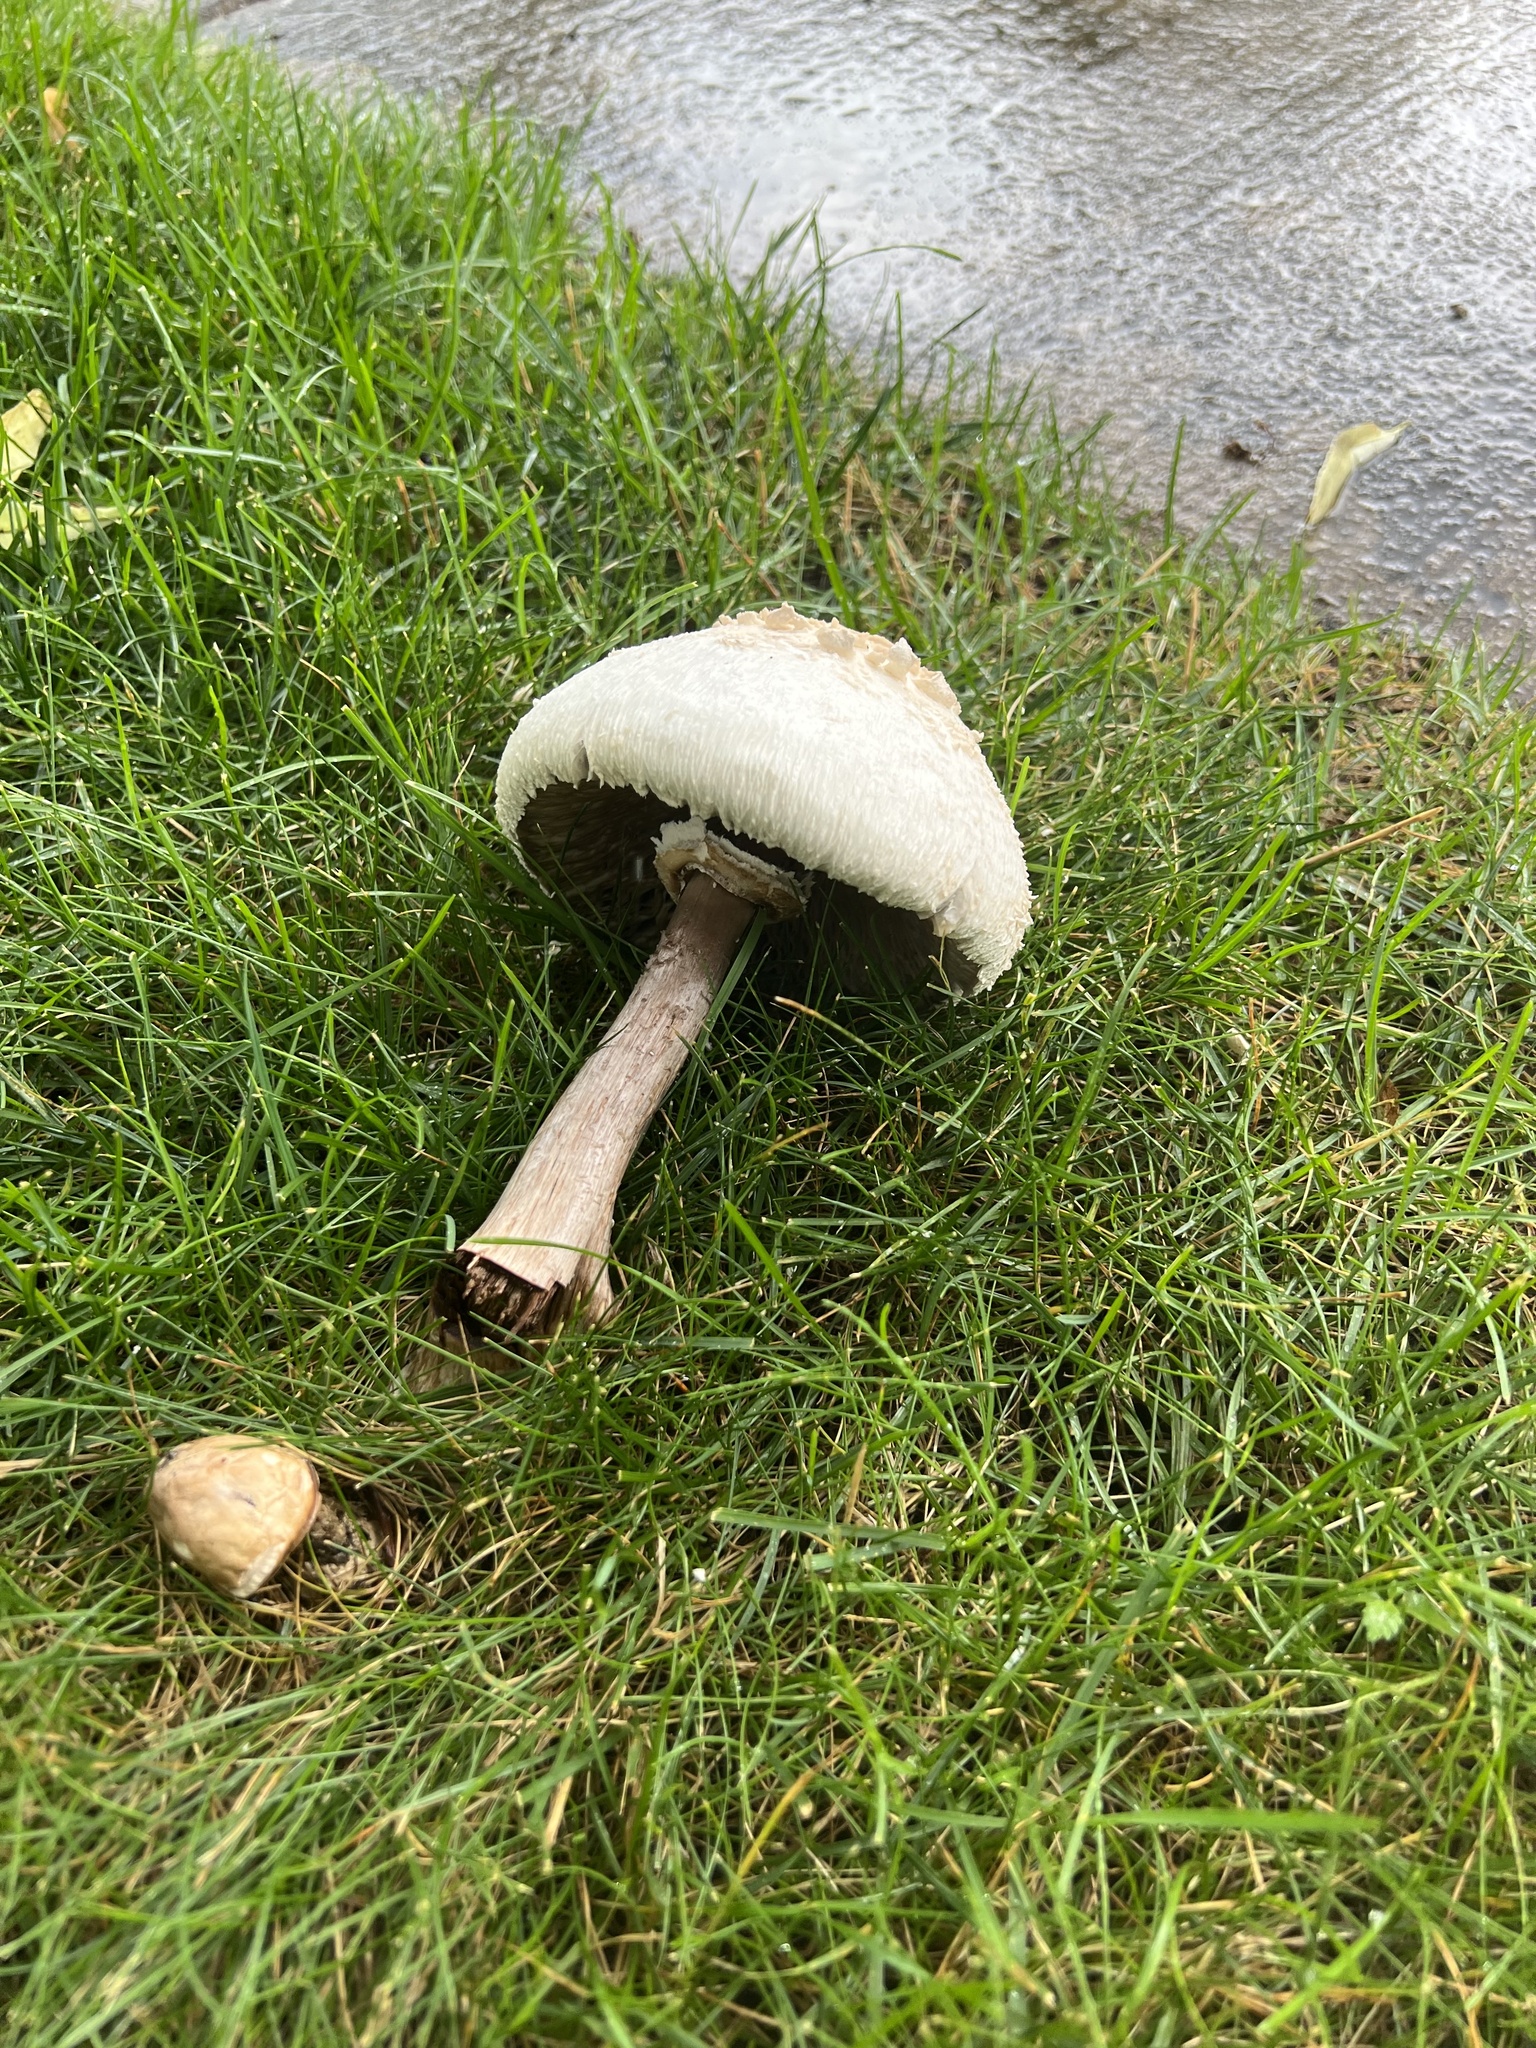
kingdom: Fungi
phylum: Basidiomycota
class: Agaricomycetes
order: Agaricales
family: Agaricaceae
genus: Chlorophyllum
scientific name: Chlorophyllum molybdites
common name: False parasol
